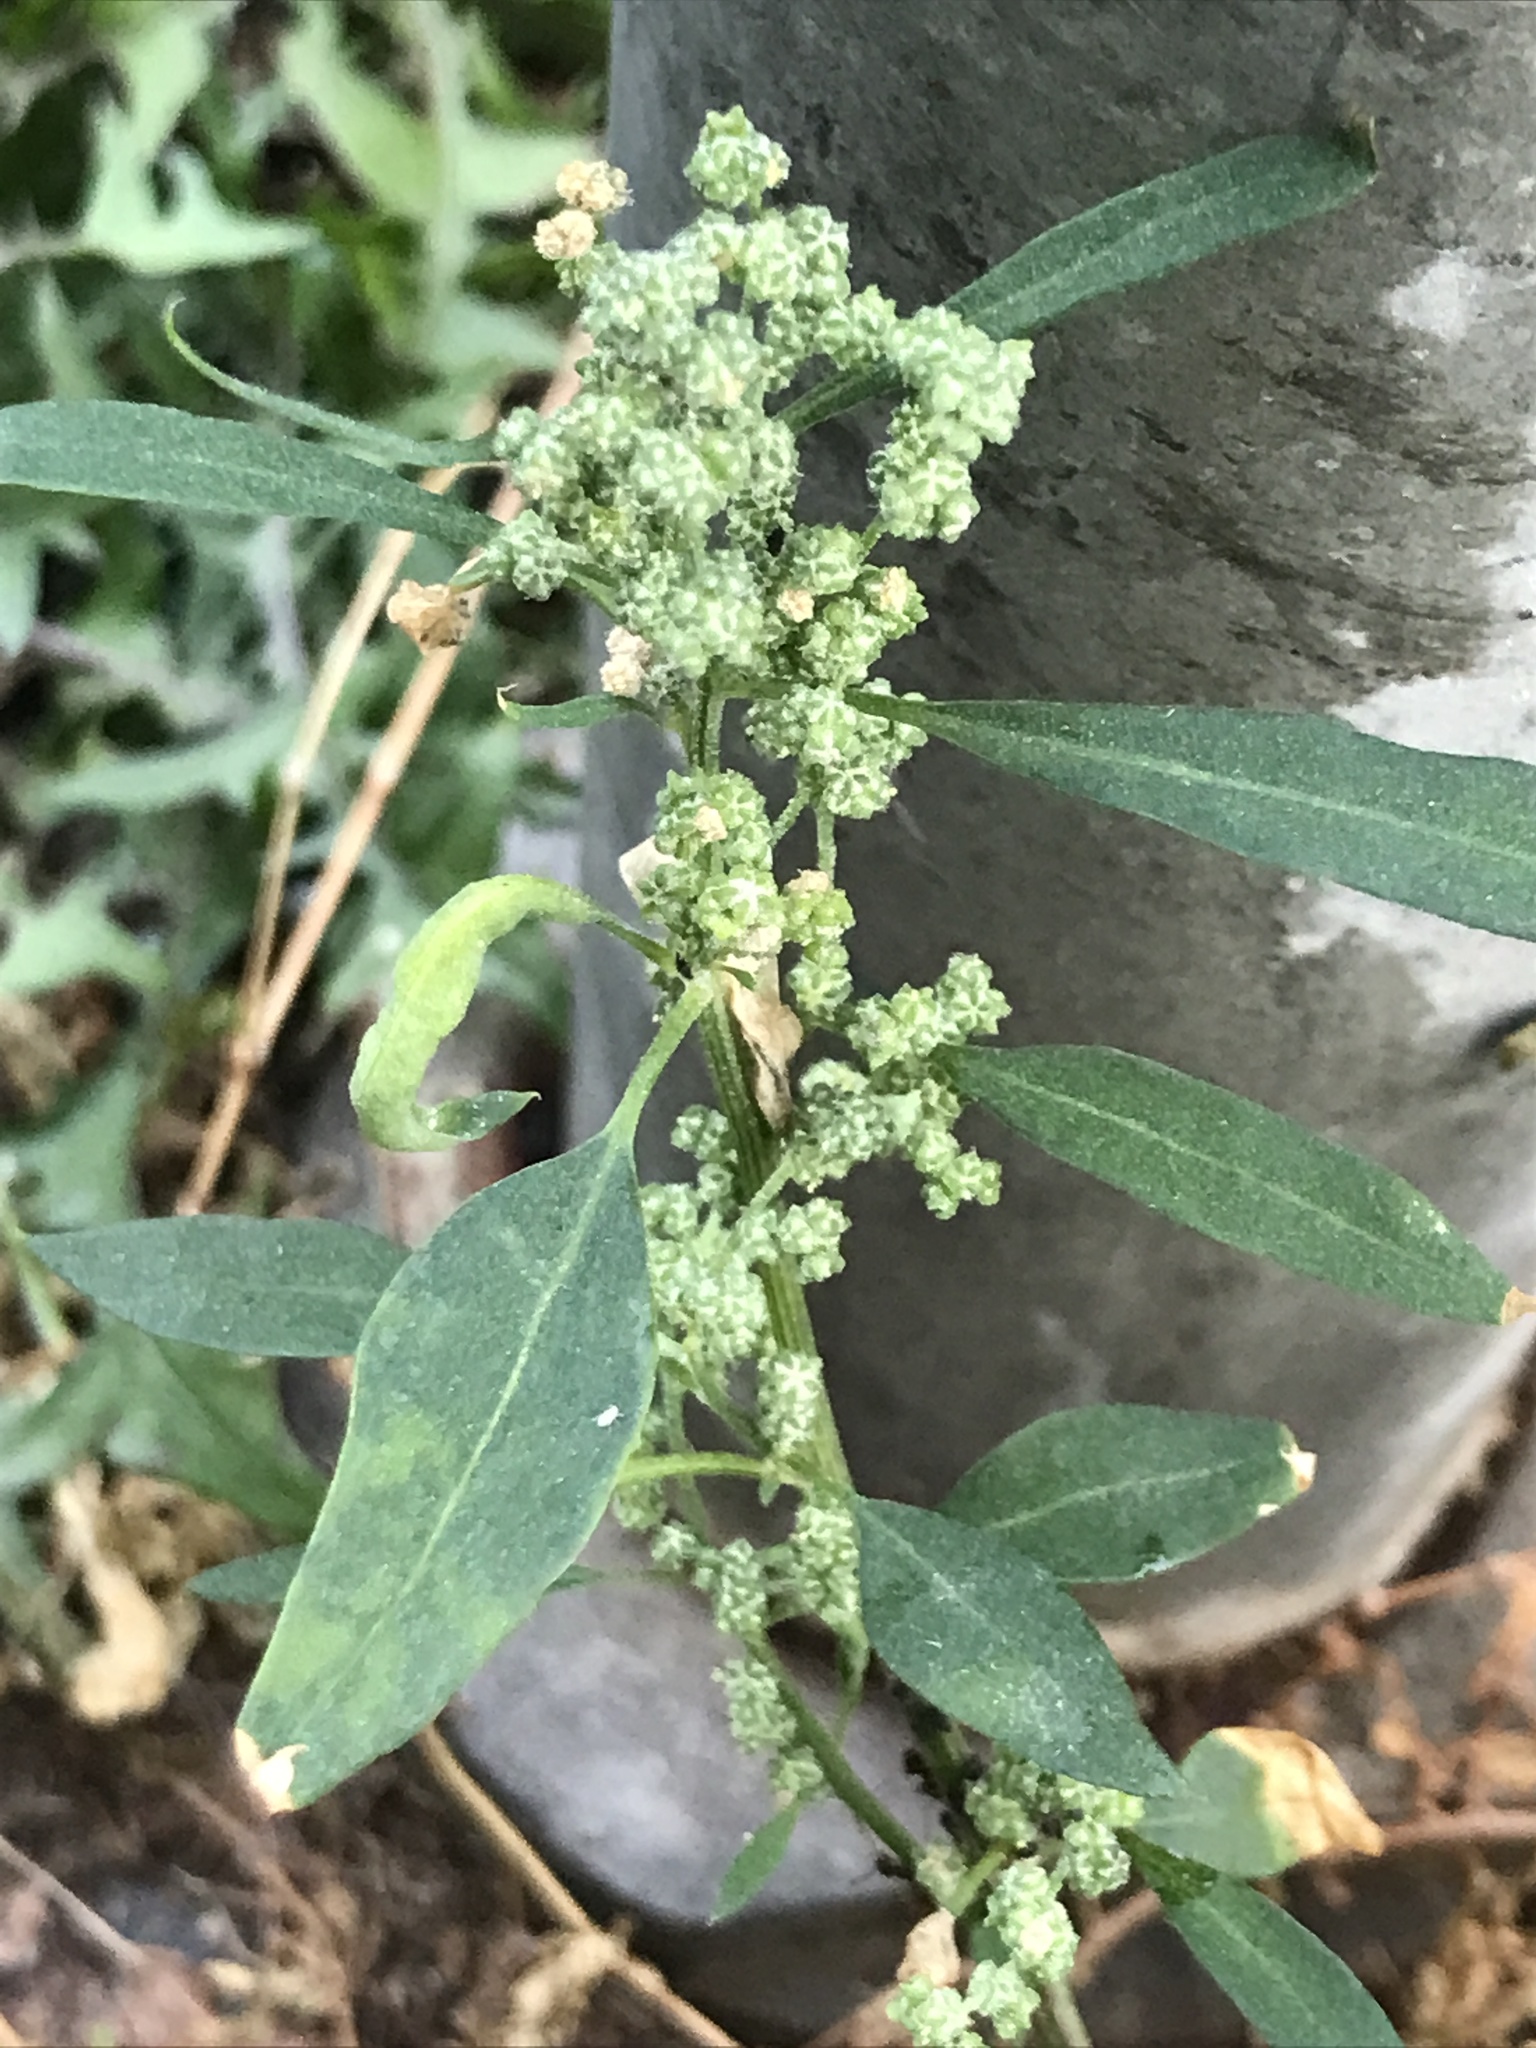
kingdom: Plantae
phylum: Tracheophyta
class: Magnoliopsida
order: Caryophyllales
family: Amaranthaceae
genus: Chenopodium
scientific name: Chenopodium album
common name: Fat-hen
